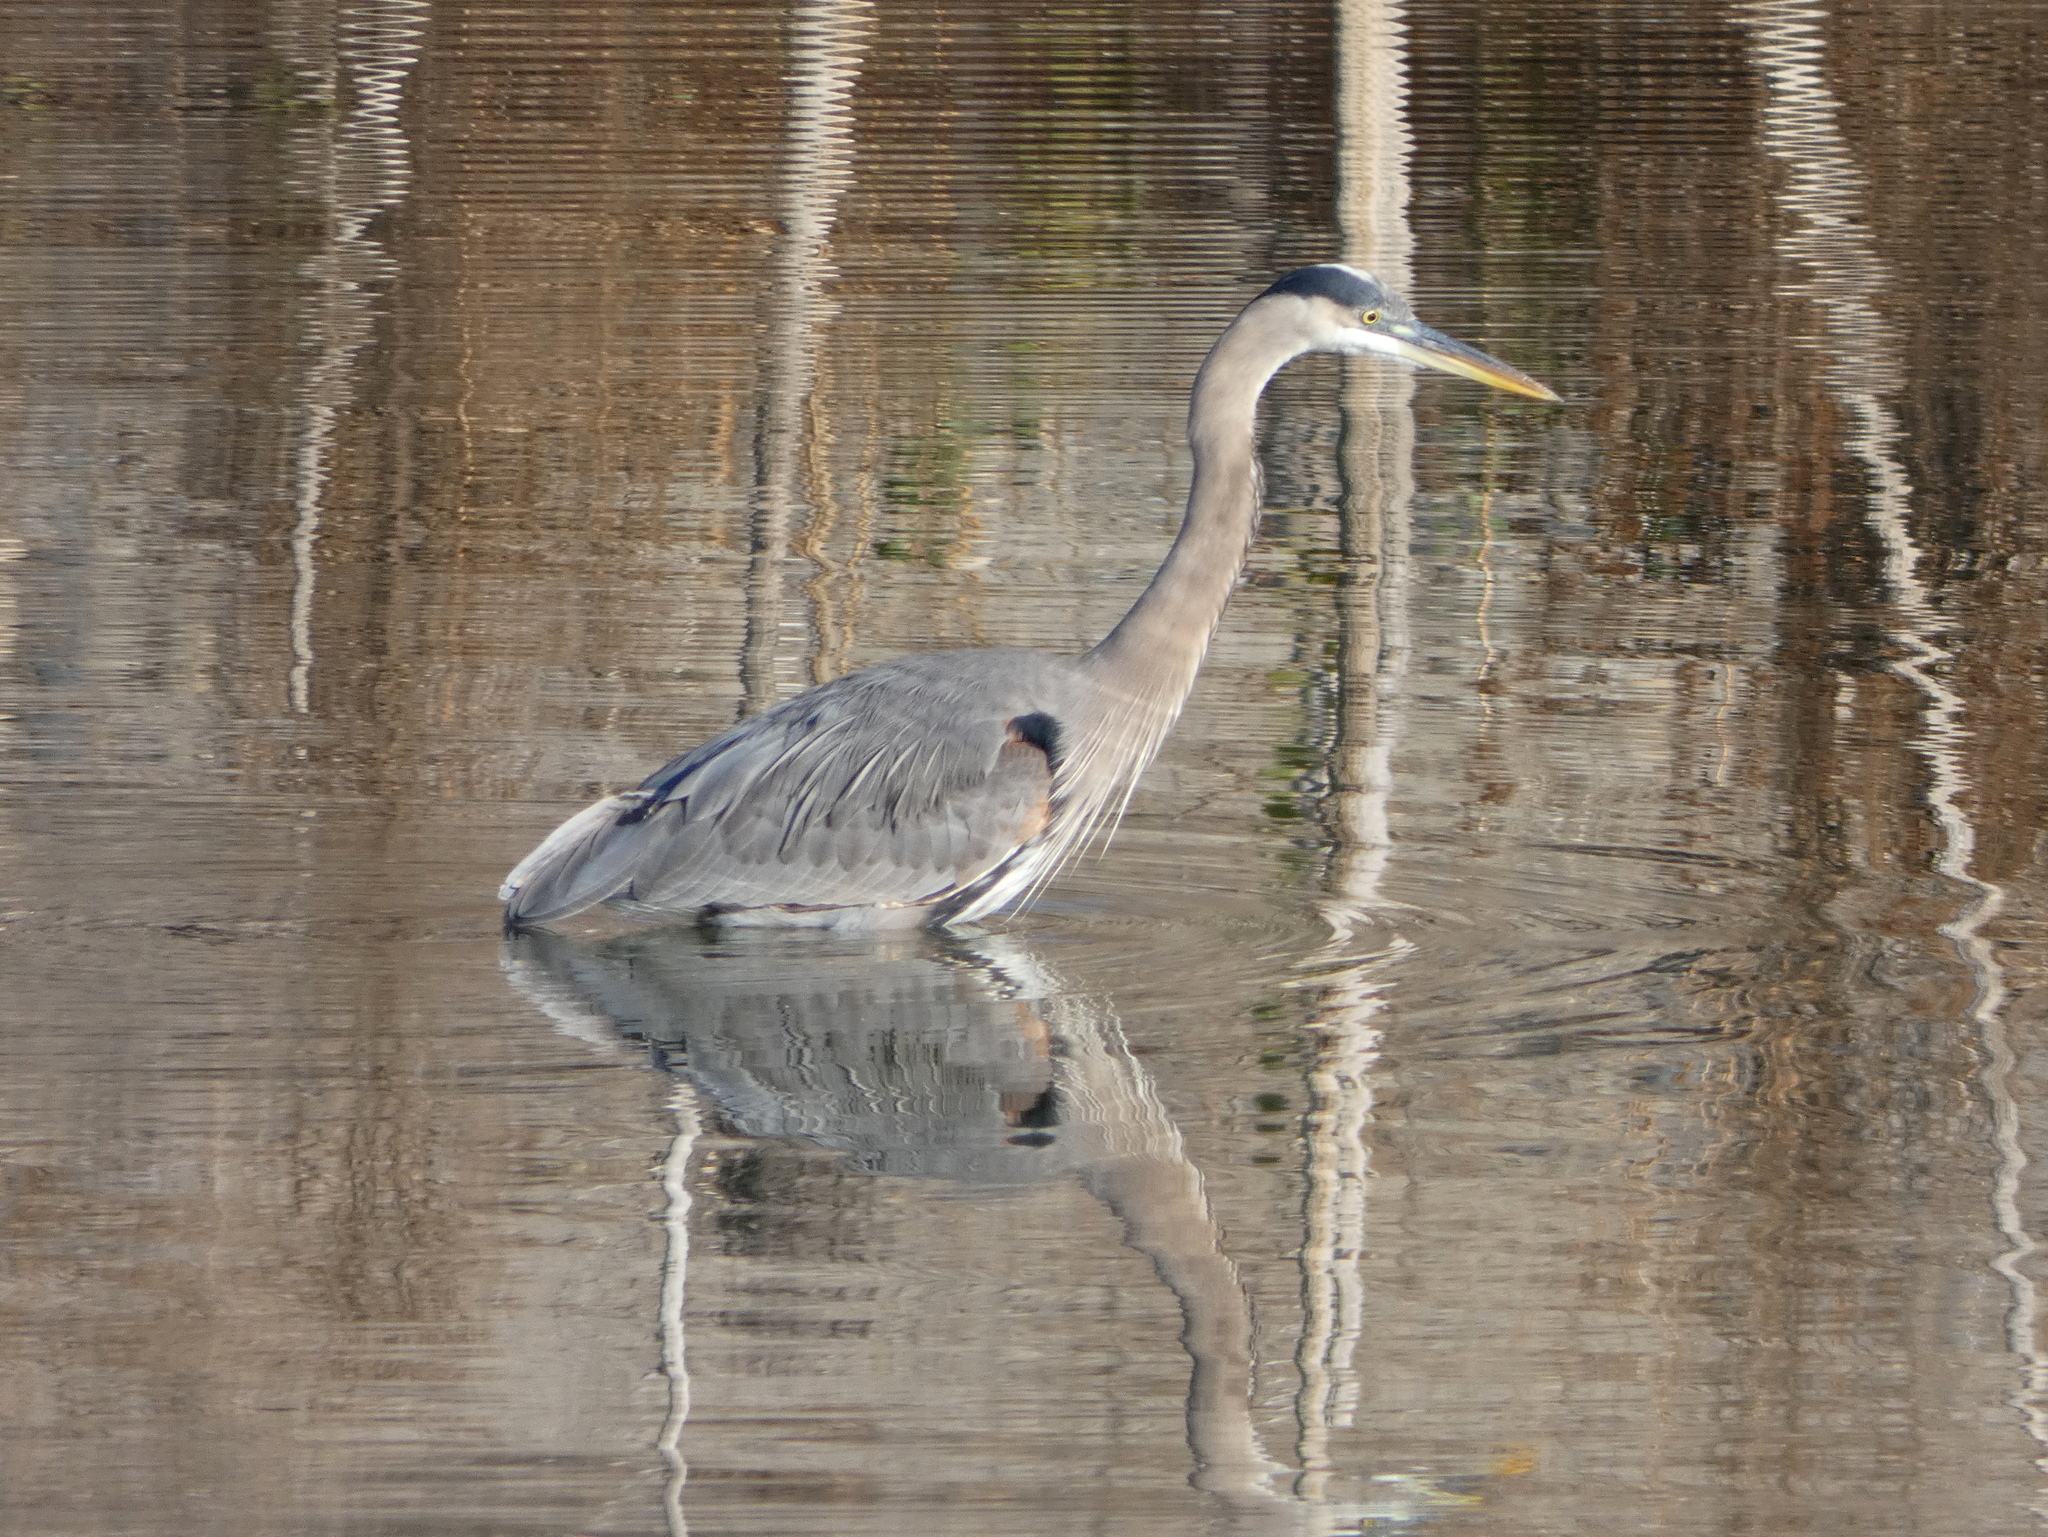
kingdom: Animalia
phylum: Chordata
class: Aves
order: Pelecaniformes
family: Ardeidae
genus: Ardea
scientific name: Ardea herodias
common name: Great blue heron
